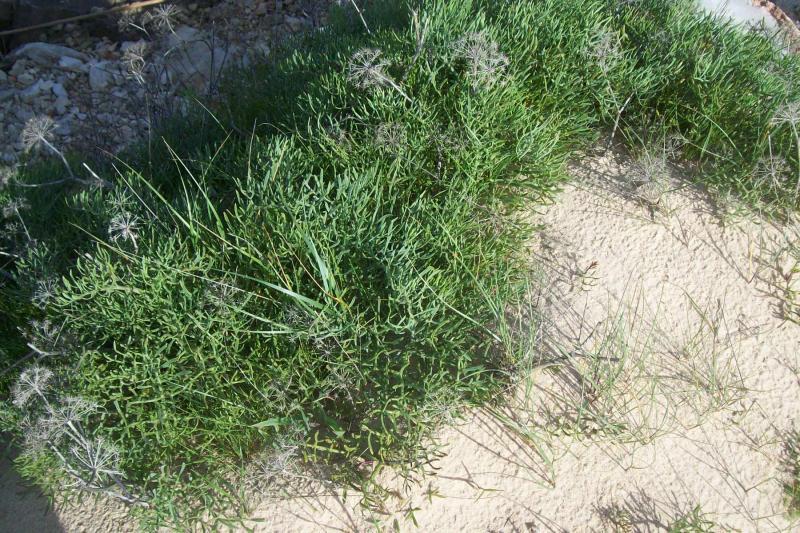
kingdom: Plantae
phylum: Tracheophyta
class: Magnoliopsida
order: Apiales
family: Apiaceae
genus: Crithmum
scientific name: Crithmum maritimum
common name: Rock samphire
